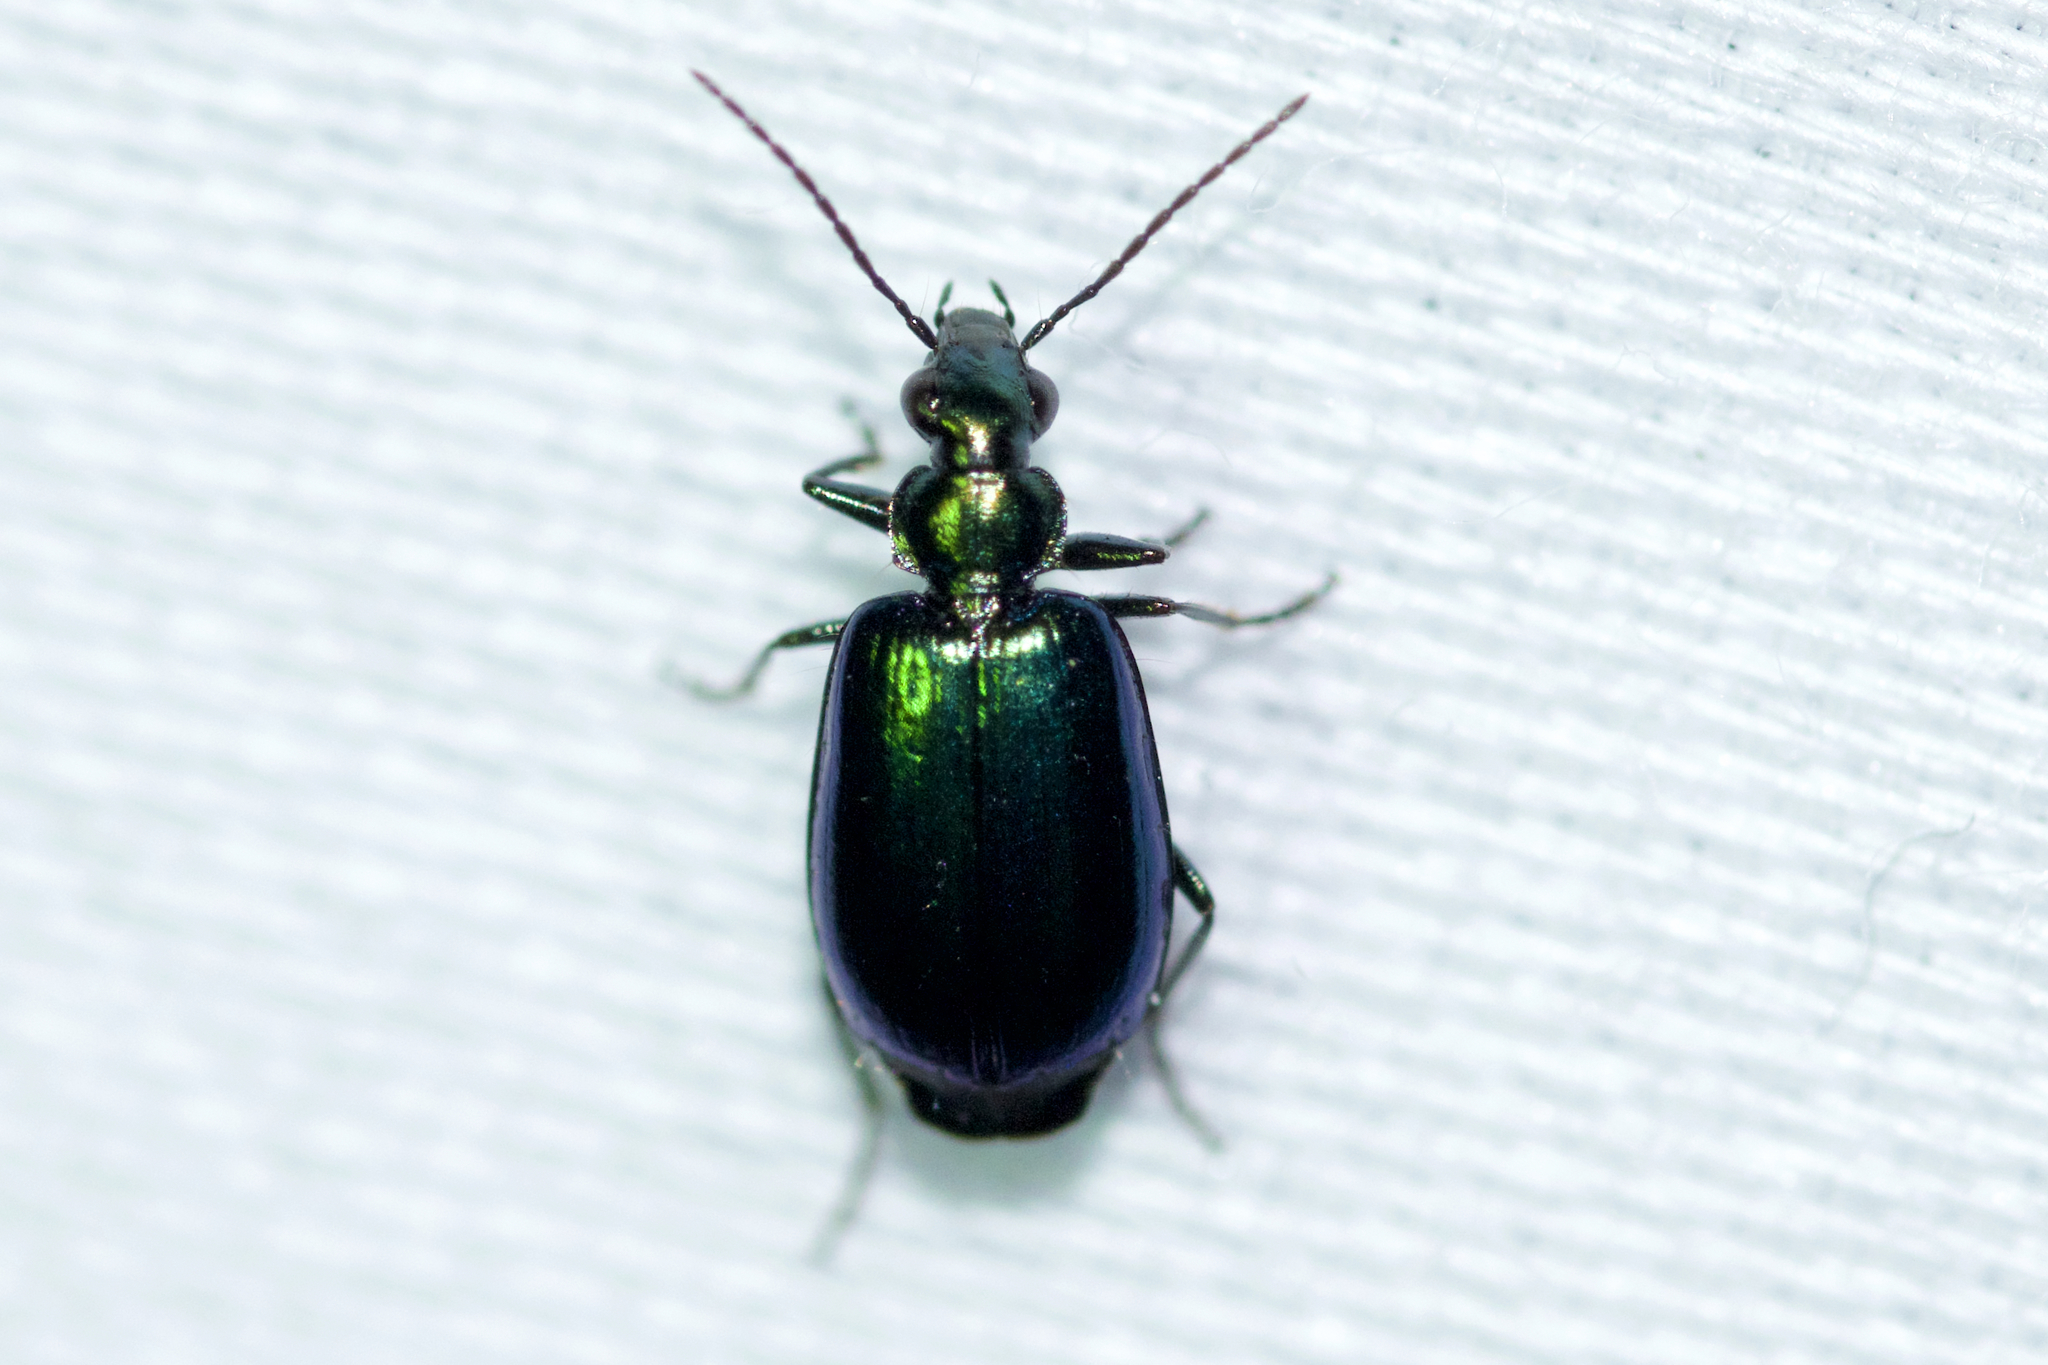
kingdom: Animalia
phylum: Arthropoda
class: Insecta
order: Coleoptera
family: Carabidae
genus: Lebia
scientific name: Lebia viridis
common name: Flower lebia beetle
